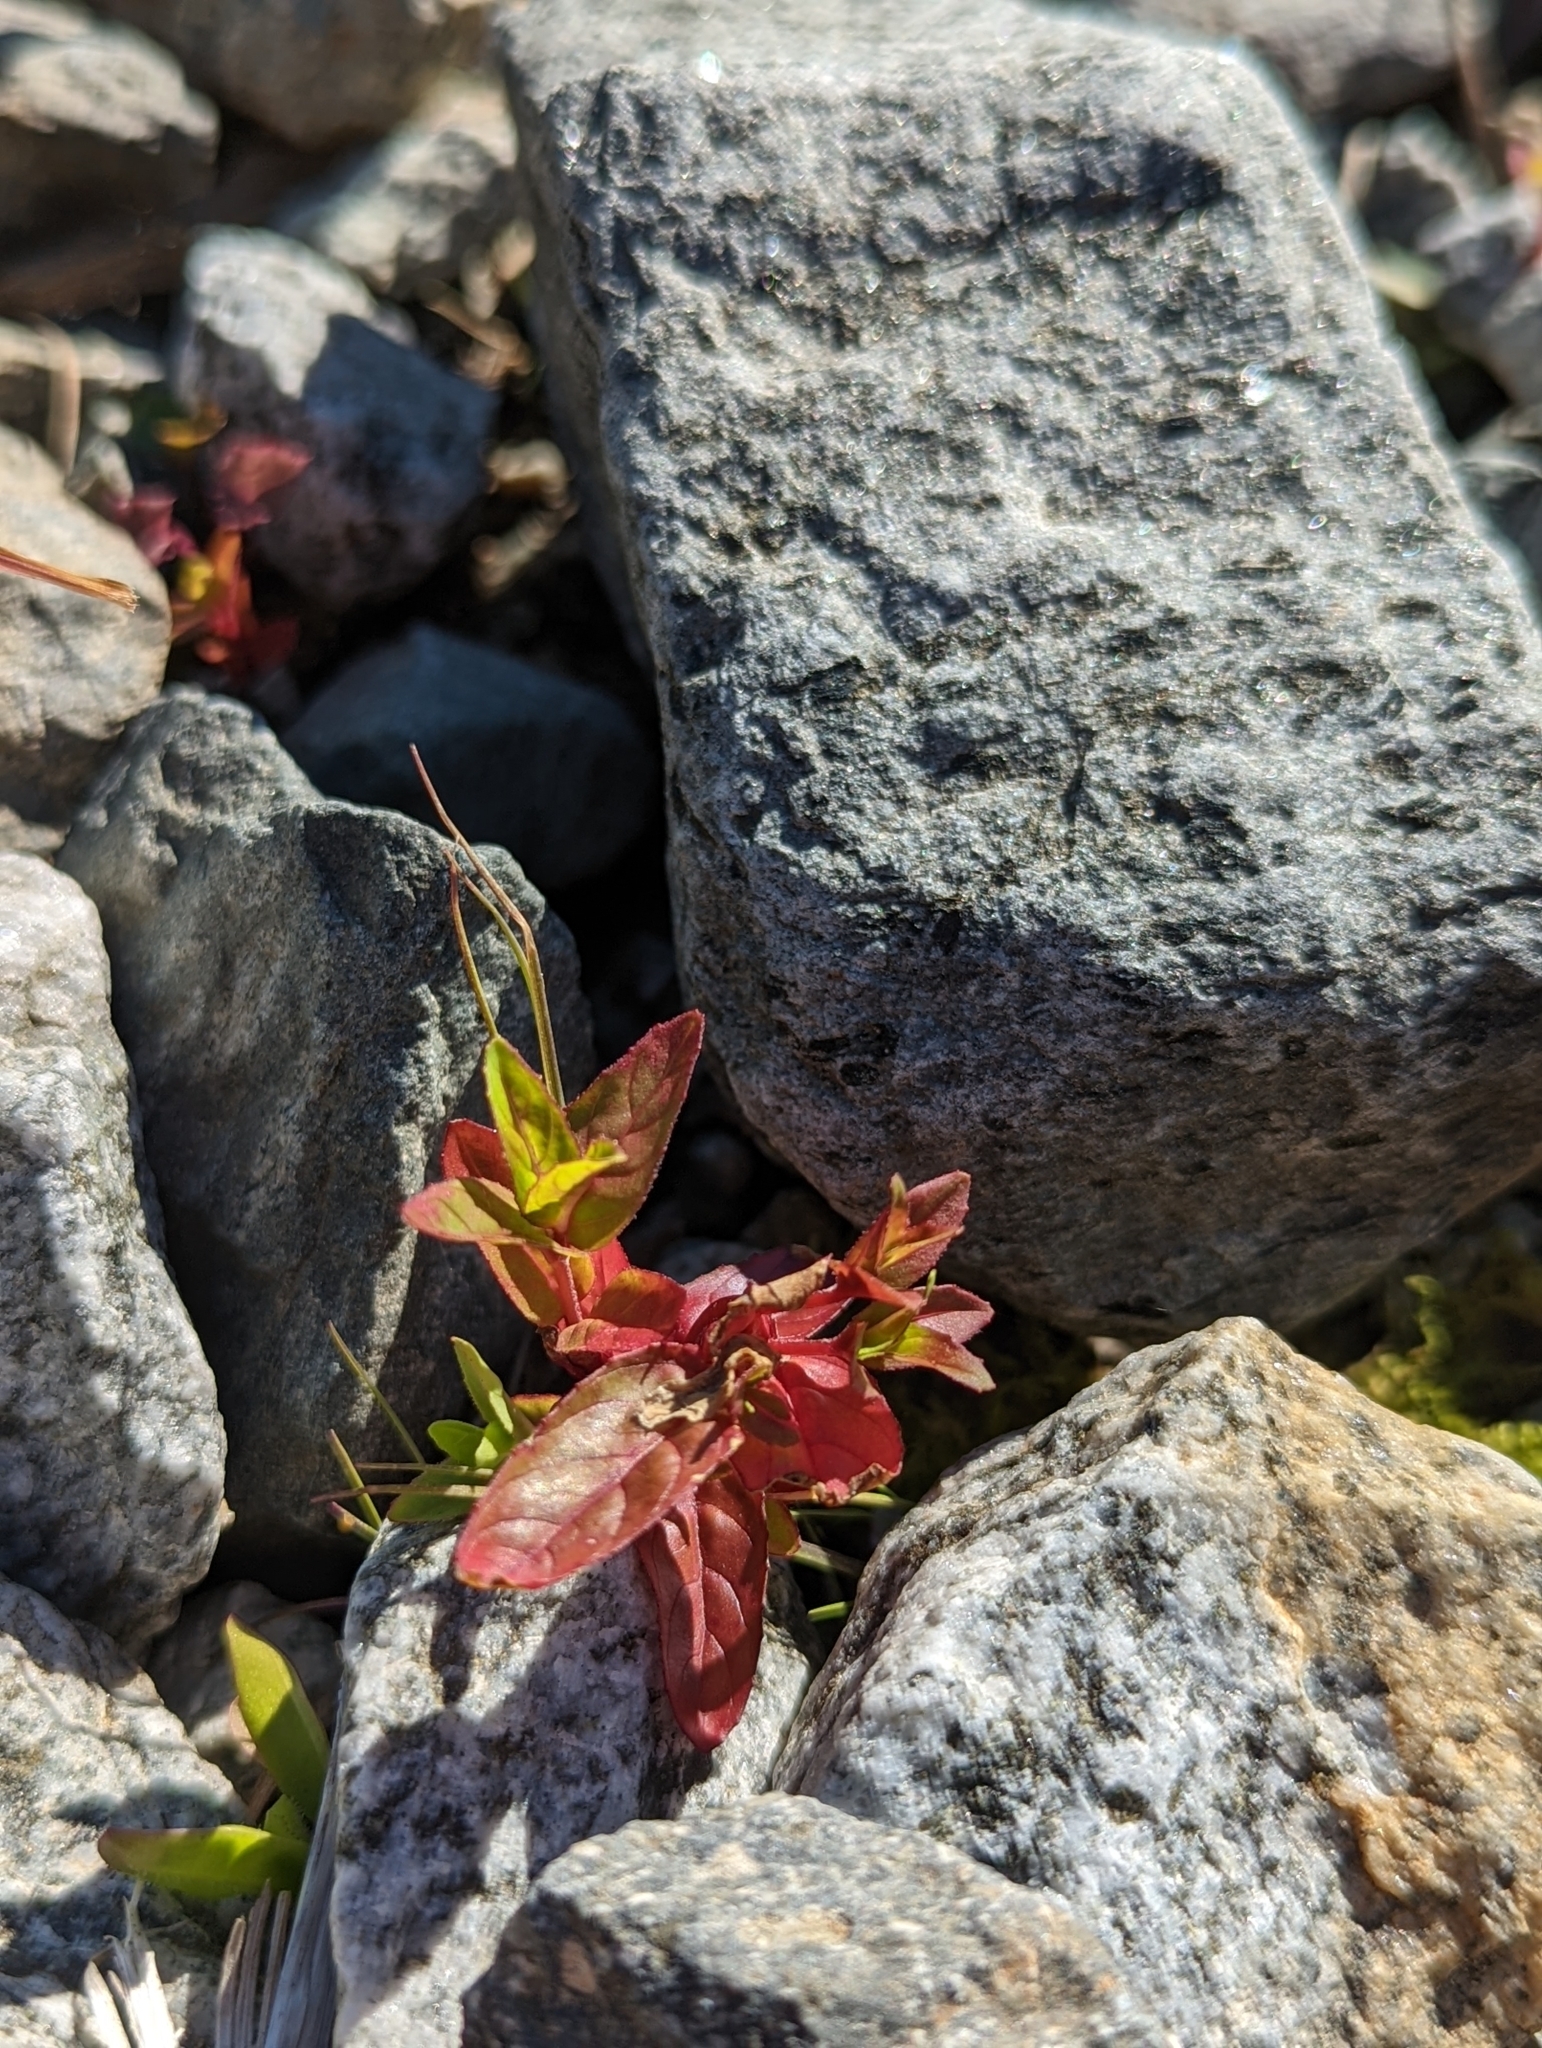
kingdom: Plantae
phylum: Tracheophyta
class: Magnoliopsida
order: Myrtales
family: Onagraceae
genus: Epilobium
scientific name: Epilobium ciliatum
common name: American willowherb
